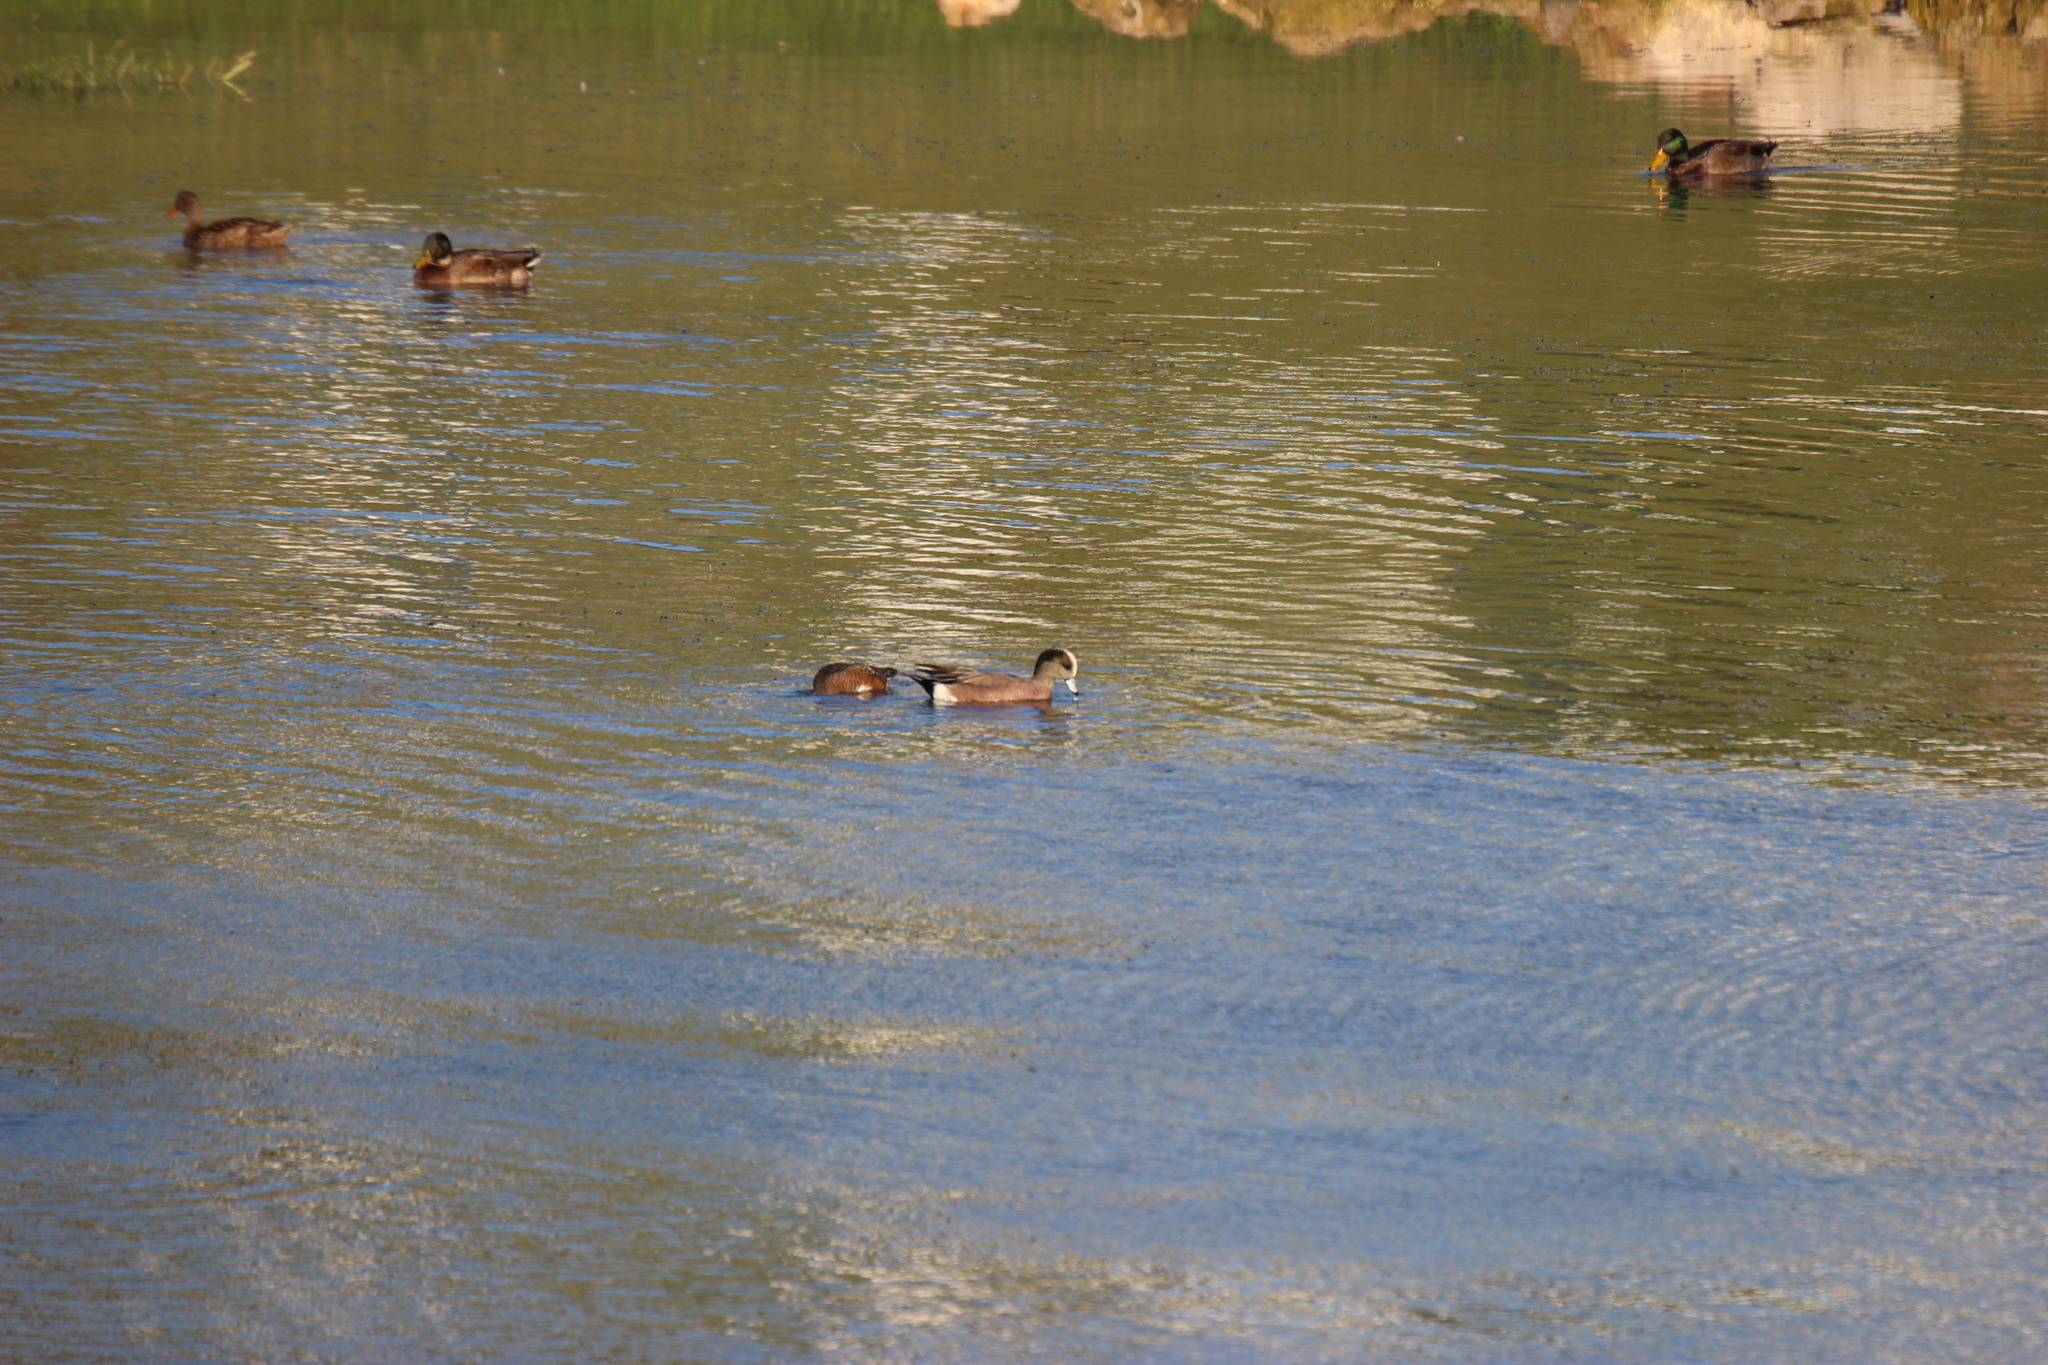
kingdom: Animalia
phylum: Chordata
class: Aves
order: Anseriformes
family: Anatidae
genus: Mareca
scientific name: Mareca americana
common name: American wigeon
